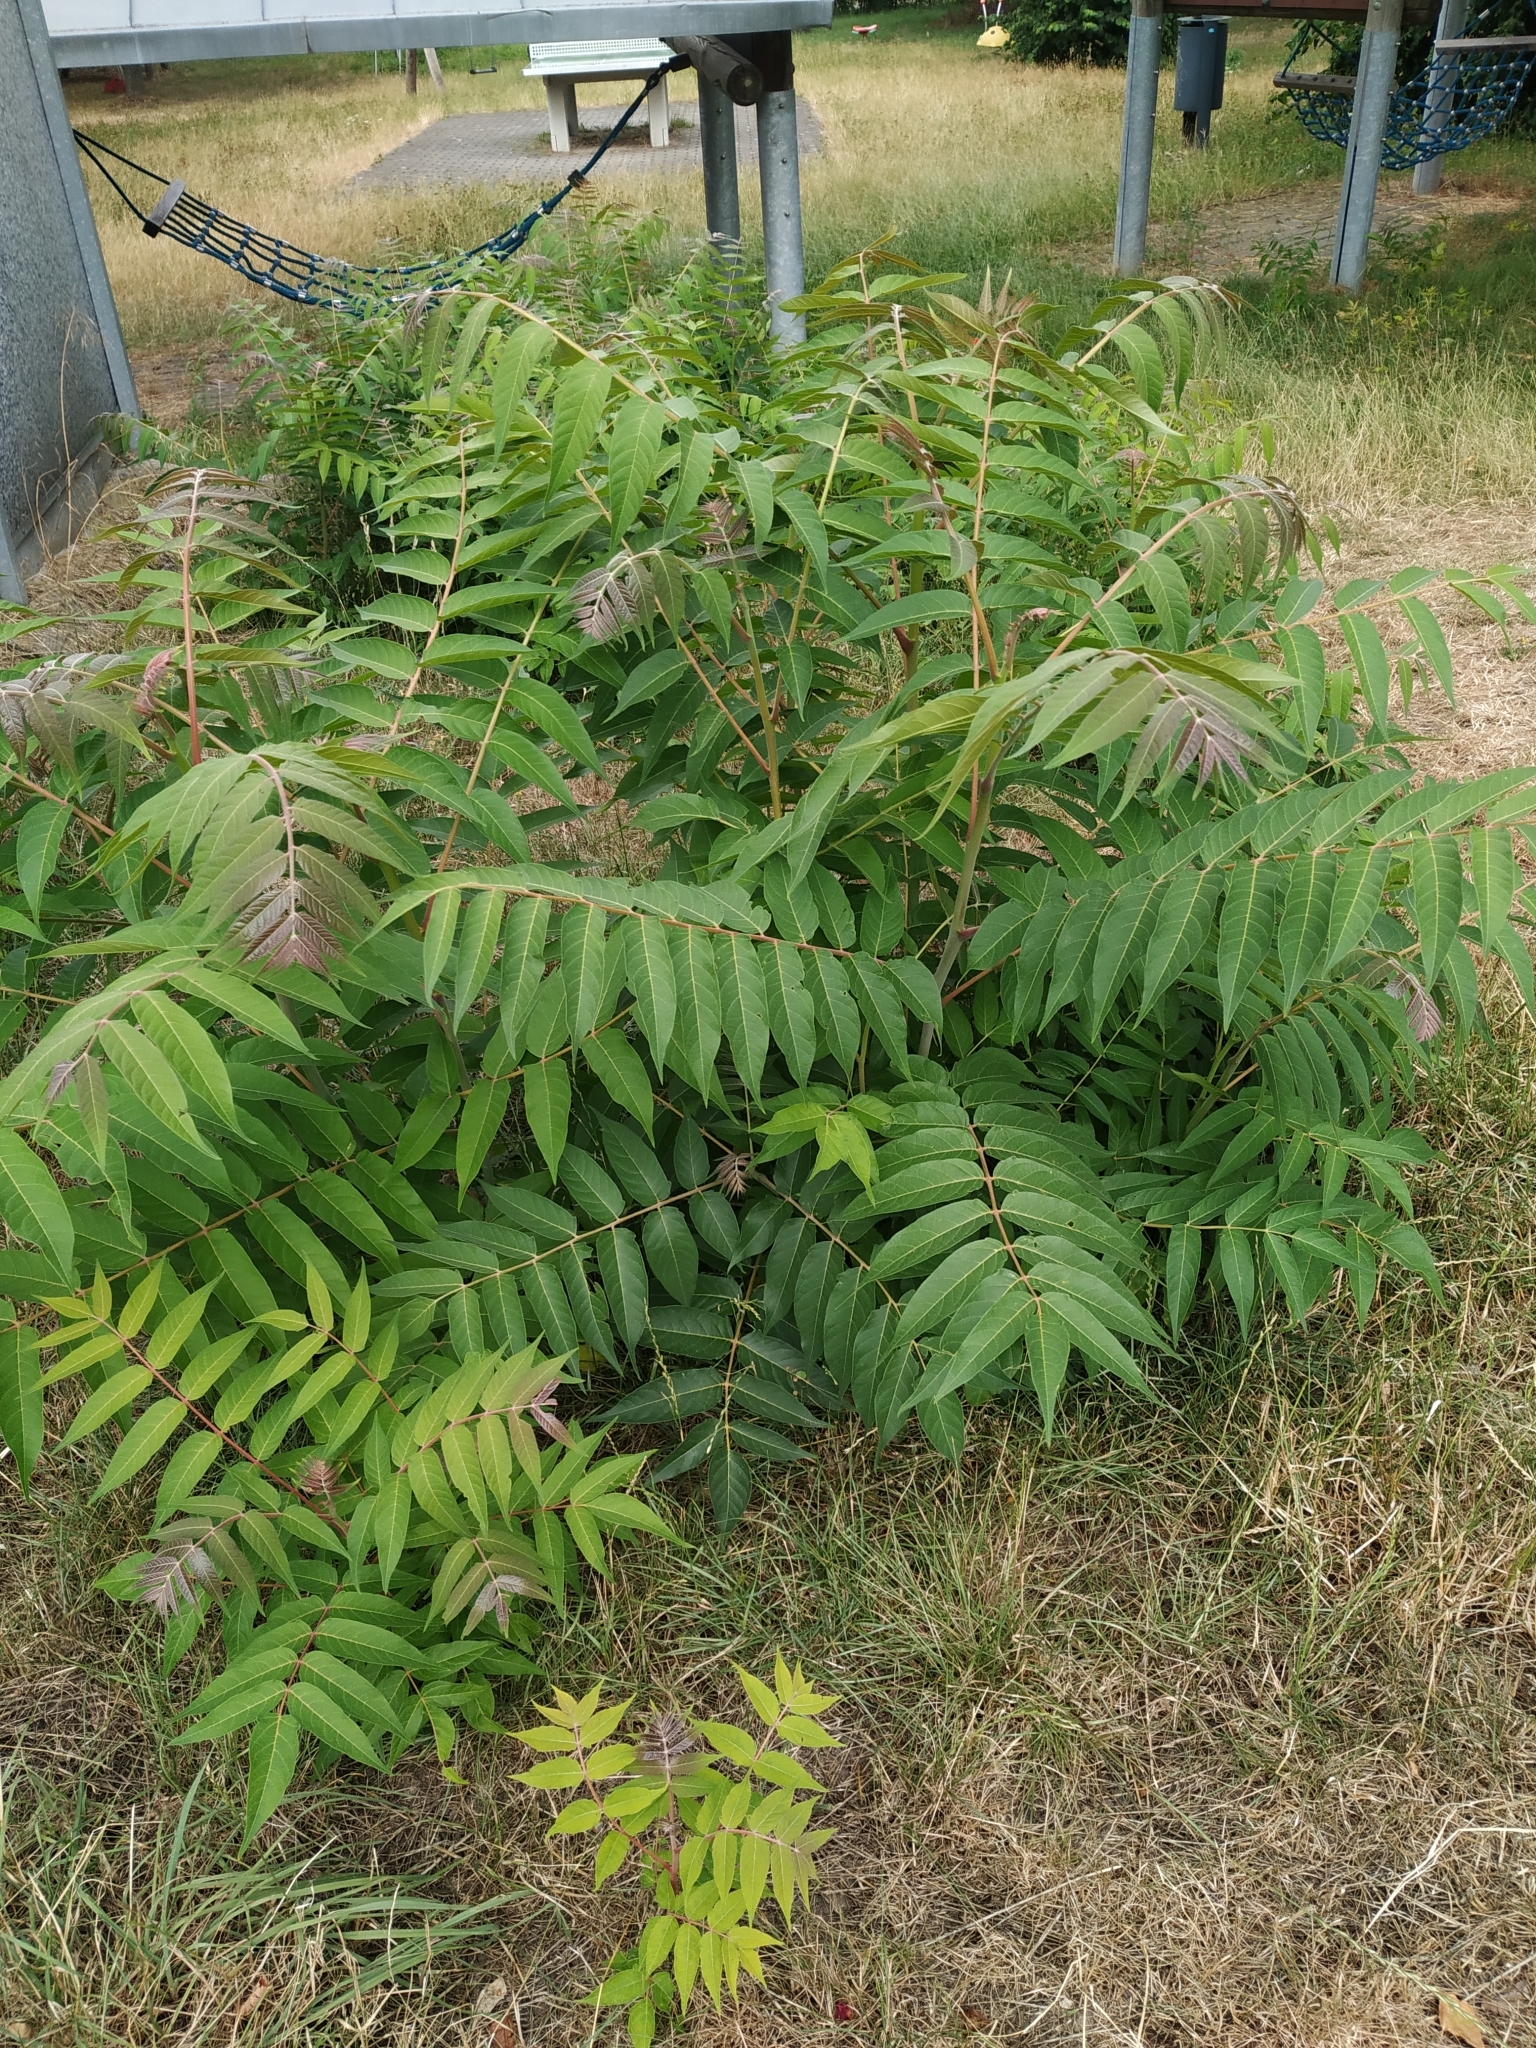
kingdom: Plantae
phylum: Tracheophyta
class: Magnoliopsida
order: Sapindales
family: Simaroubaceae
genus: Ailanthus
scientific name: Ailanthus altissima
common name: Tree-of-heaven
